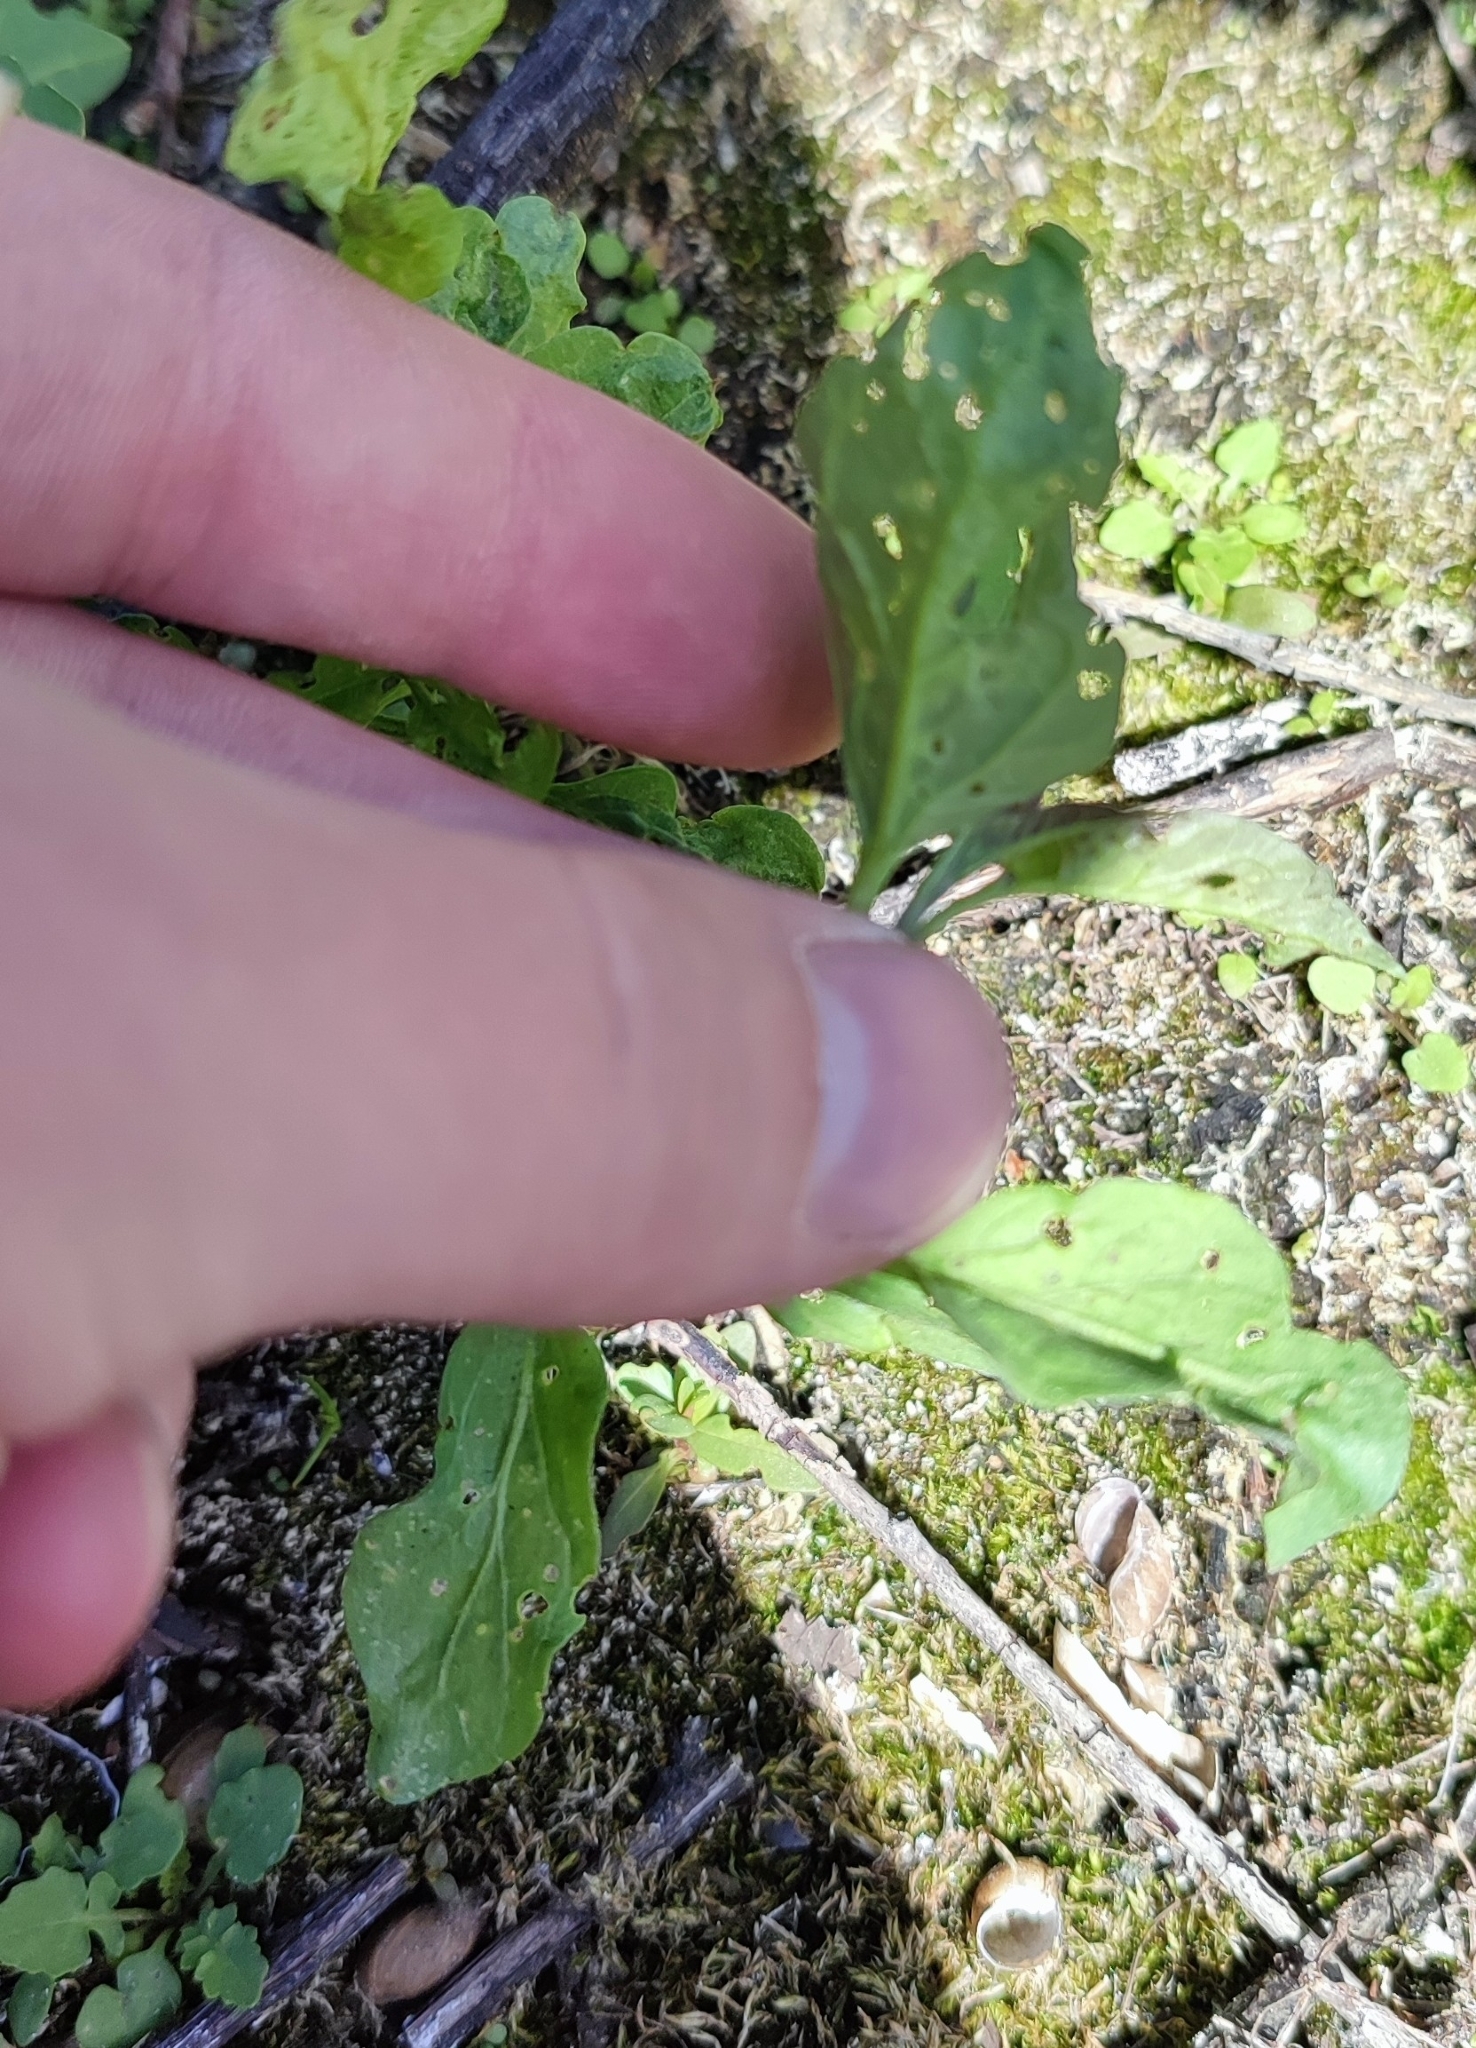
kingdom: Plantae
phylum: Tracheophyta
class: Magnoliopsida
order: Solanales
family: Solanaceae
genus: Solanum
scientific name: Solanum dulcamara
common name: Climbing nightshade
